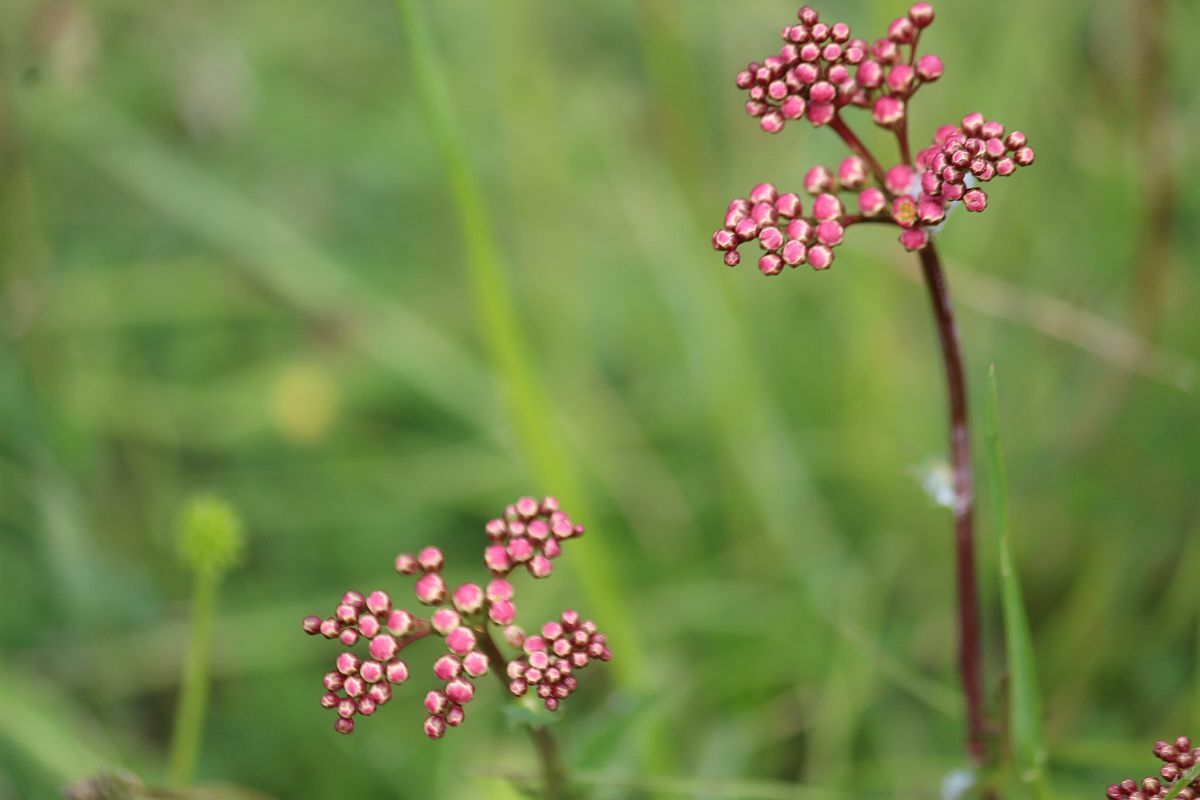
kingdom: Plantae
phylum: Tracheophyta
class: Magnoliopsida
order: Rosales
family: Rosaceae
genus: Filipendula
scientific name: Filipendula vulgaris
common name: Dropwort
